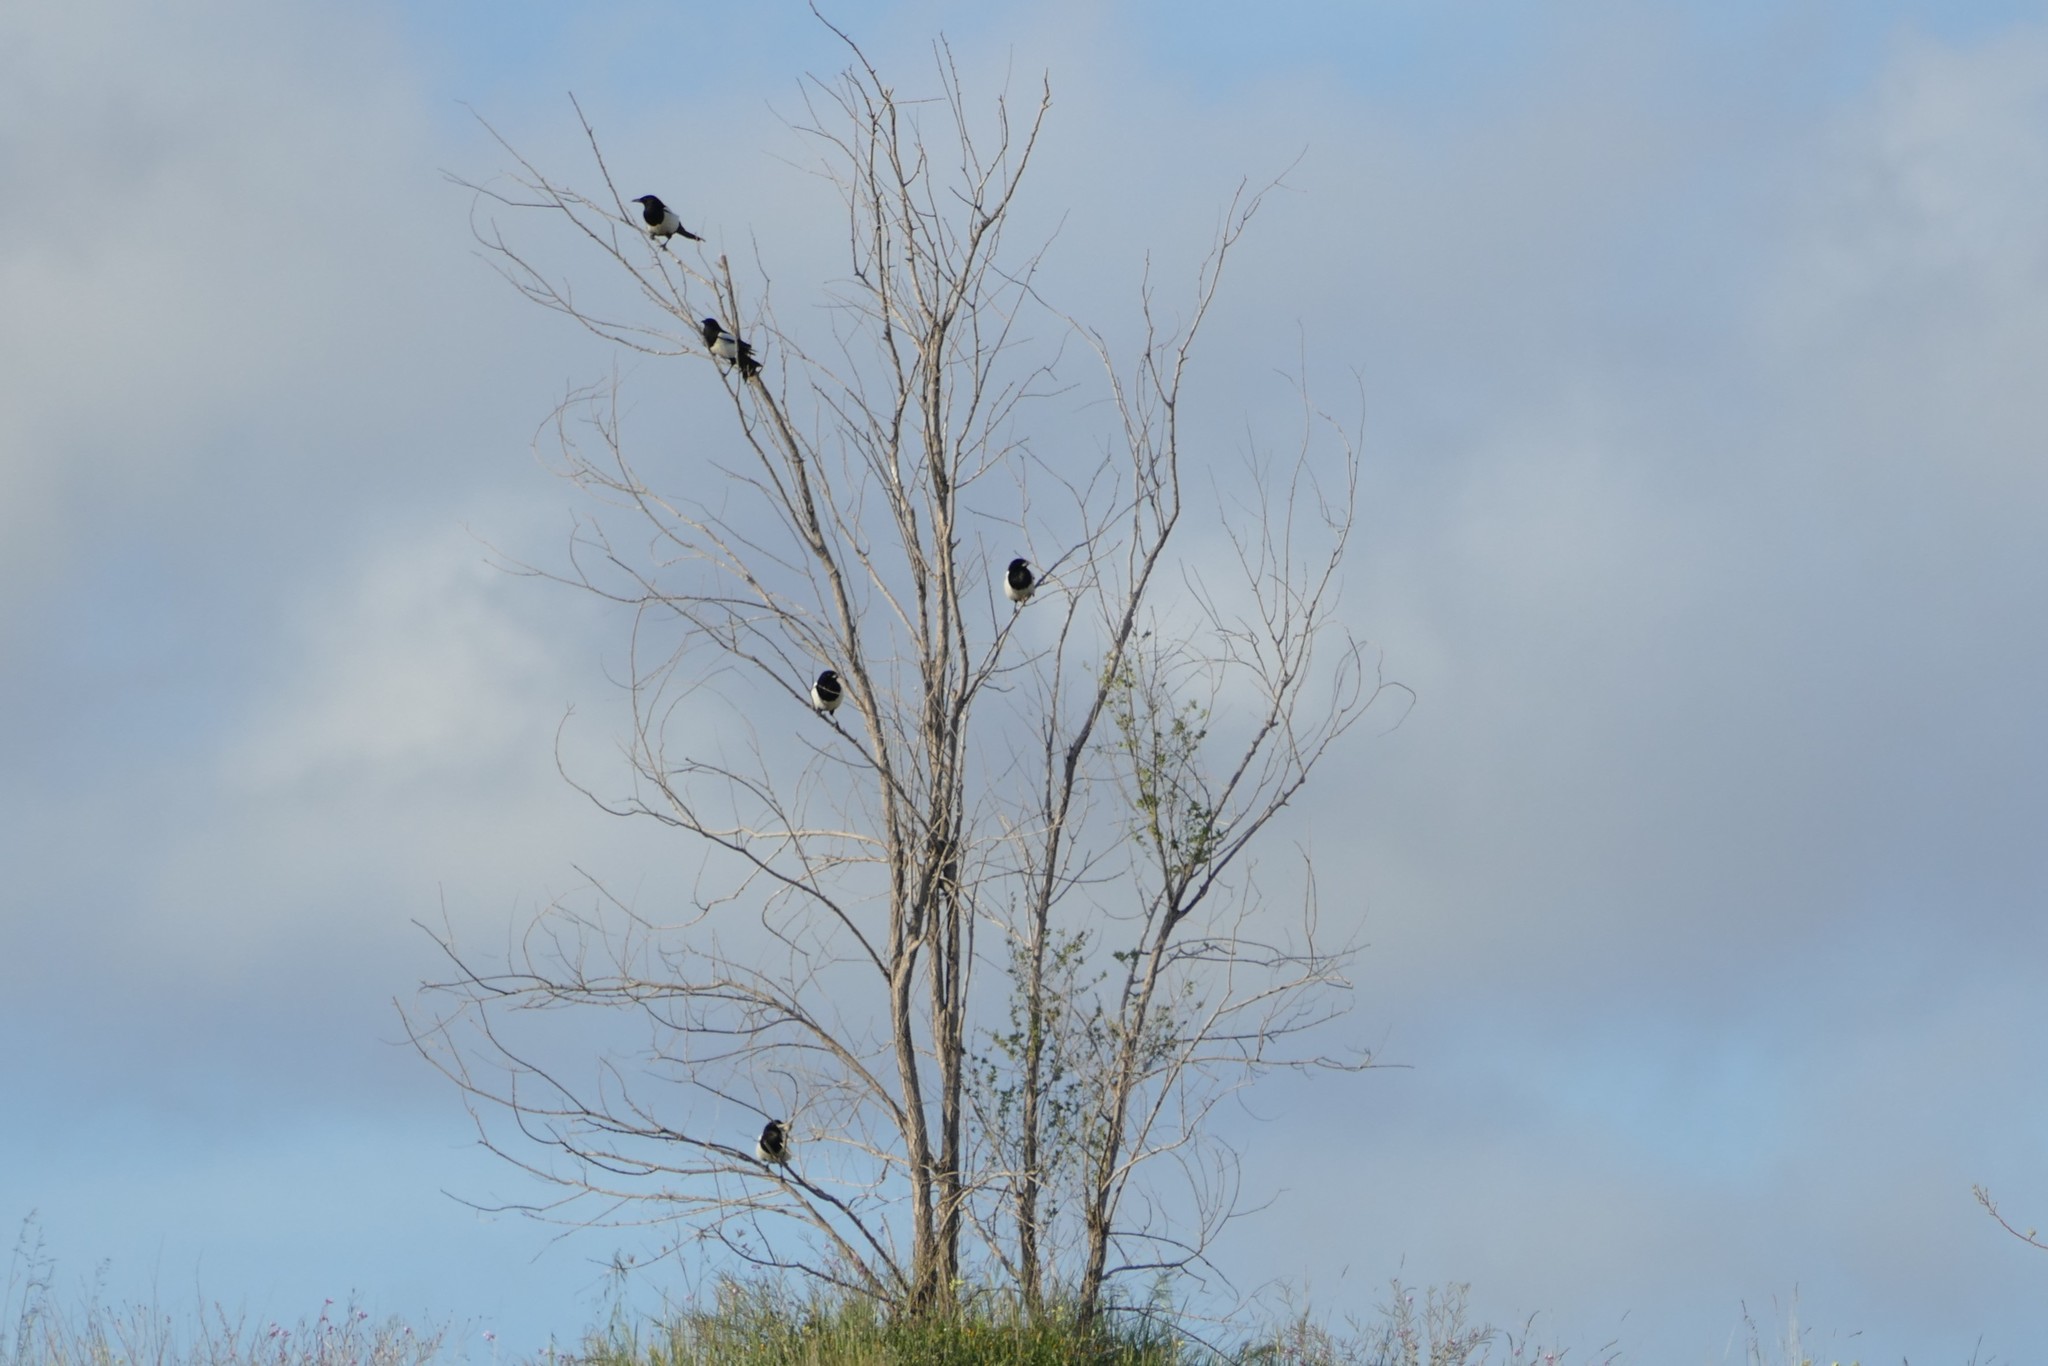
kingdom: Animalia
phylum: Chordata
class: Aves
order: Passeriformes
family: Corvidae
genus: Pica
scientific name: Pica pica
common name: Eurasian magpie
